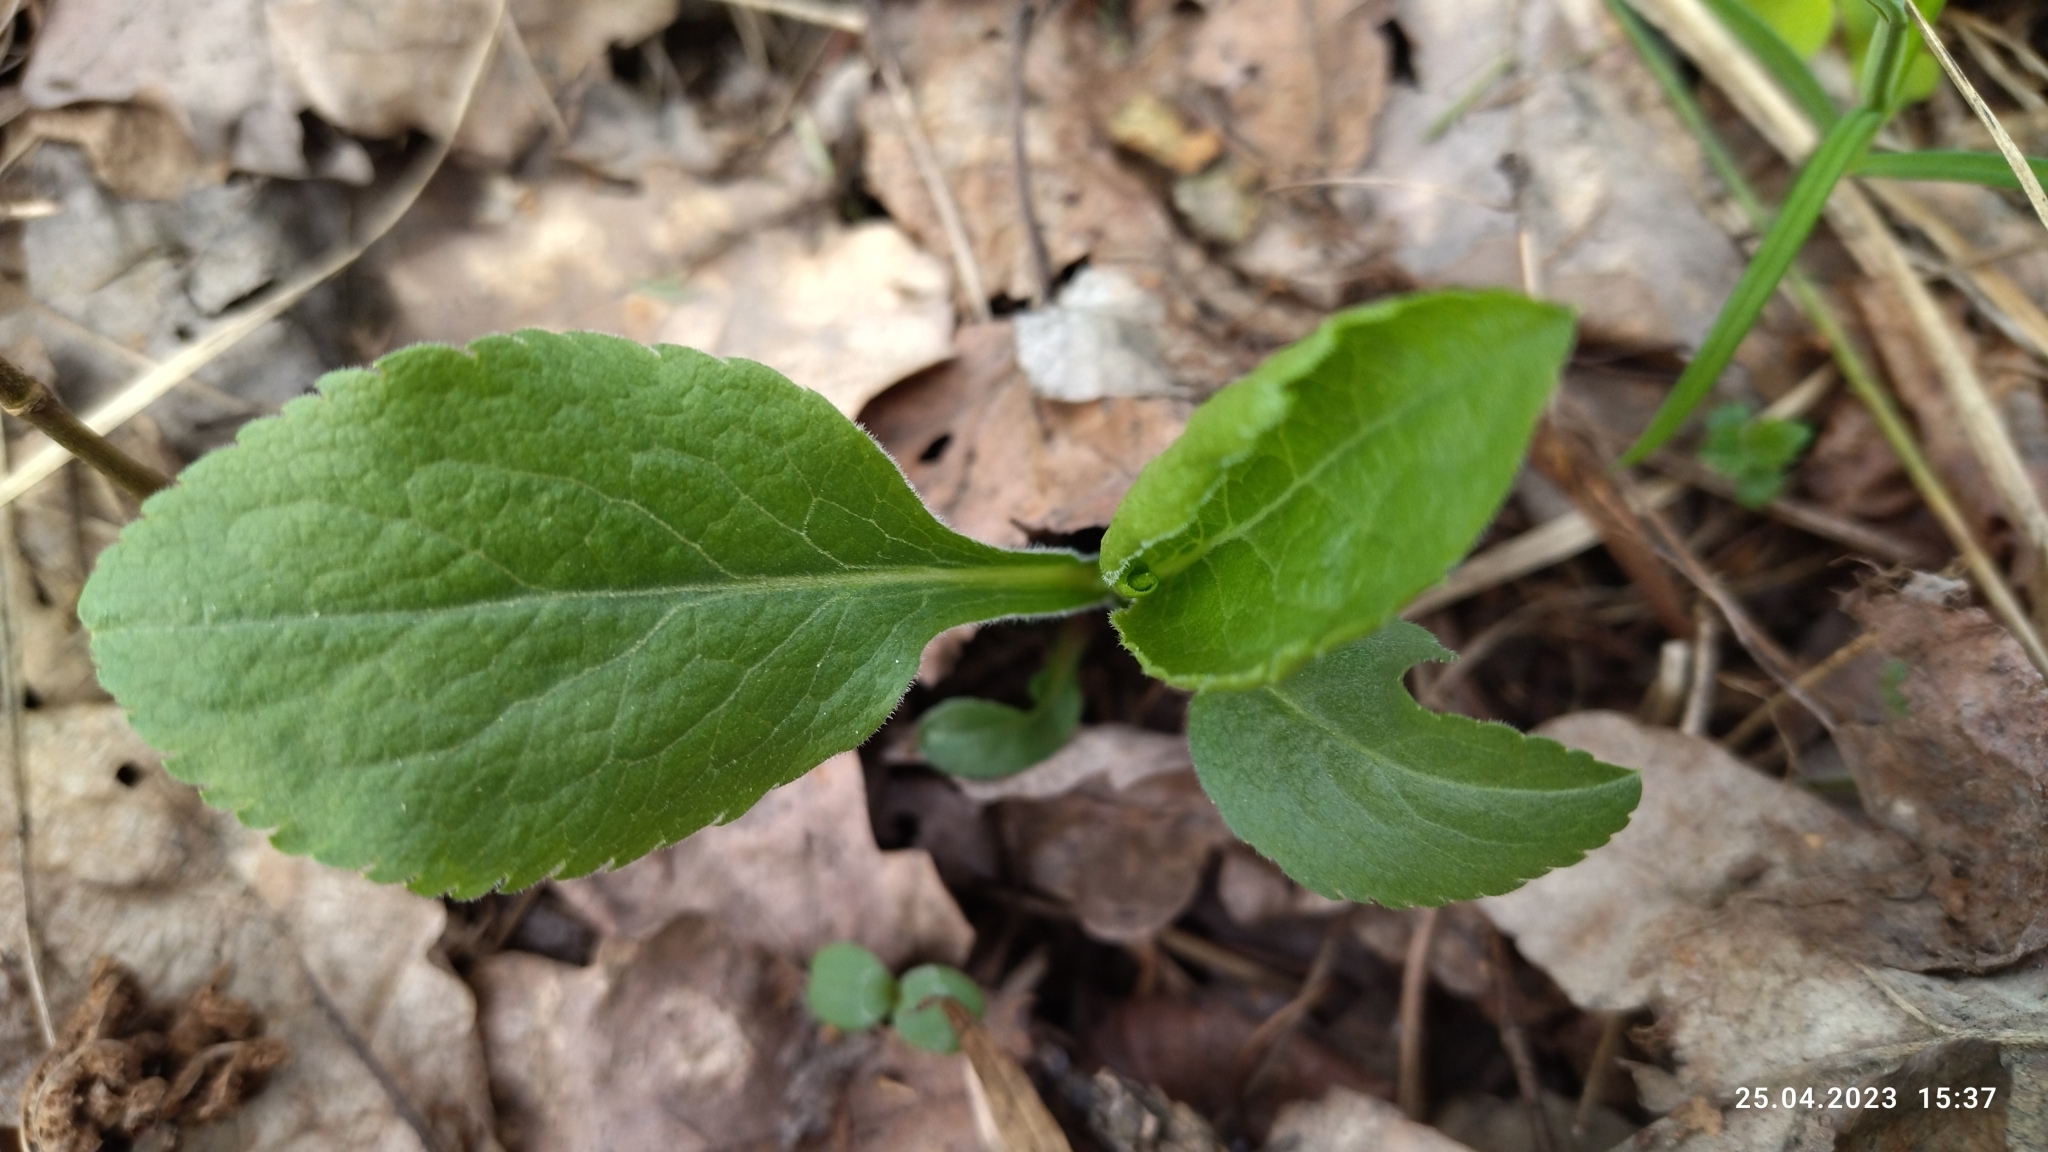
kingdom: Plantae
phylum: Tracheophyta
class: Magnoliopsida
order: Asterales
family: Asteraceae
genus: Solidago
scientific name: Solidago virgaurea
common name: Goldenrod
